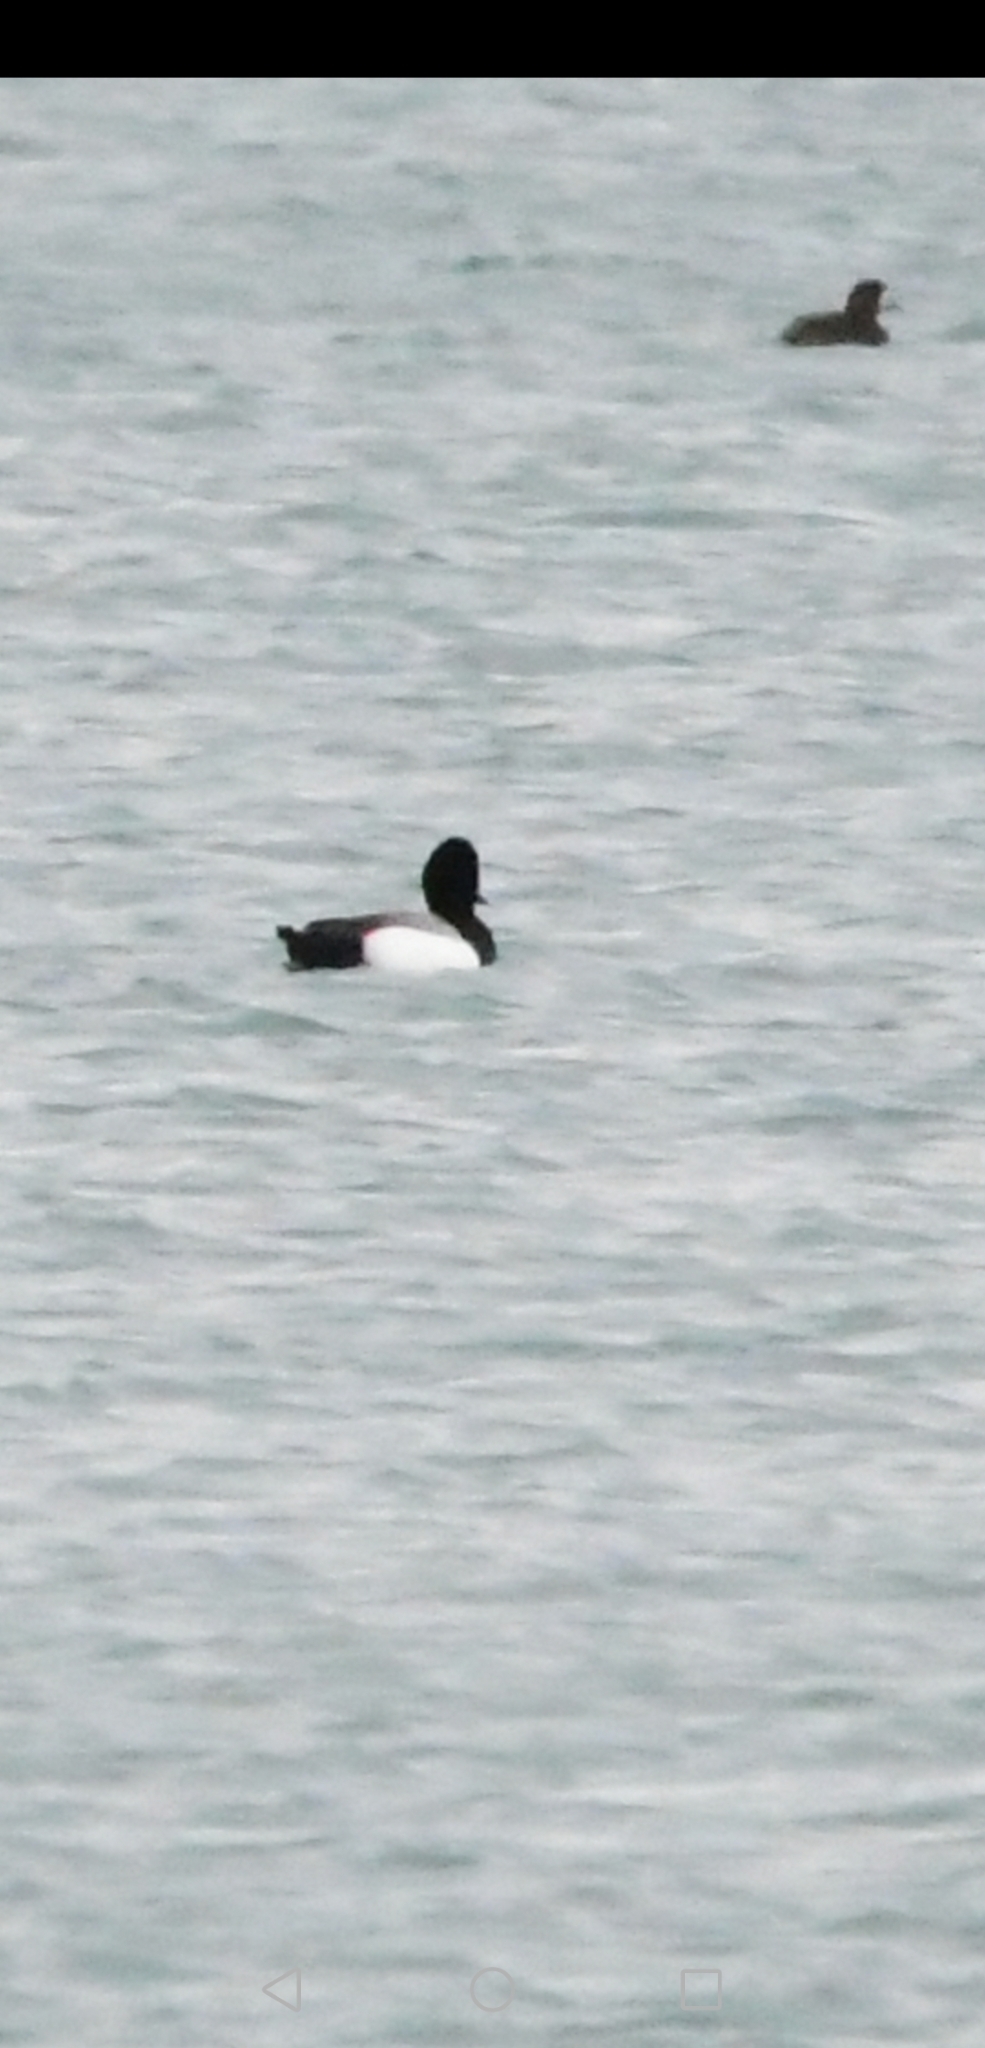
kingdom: Animalia
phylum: Chordata
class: Aves
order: Anseriformes
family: Anatidae
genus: Aythya
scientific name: Aythya marila
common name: Greater scaup
